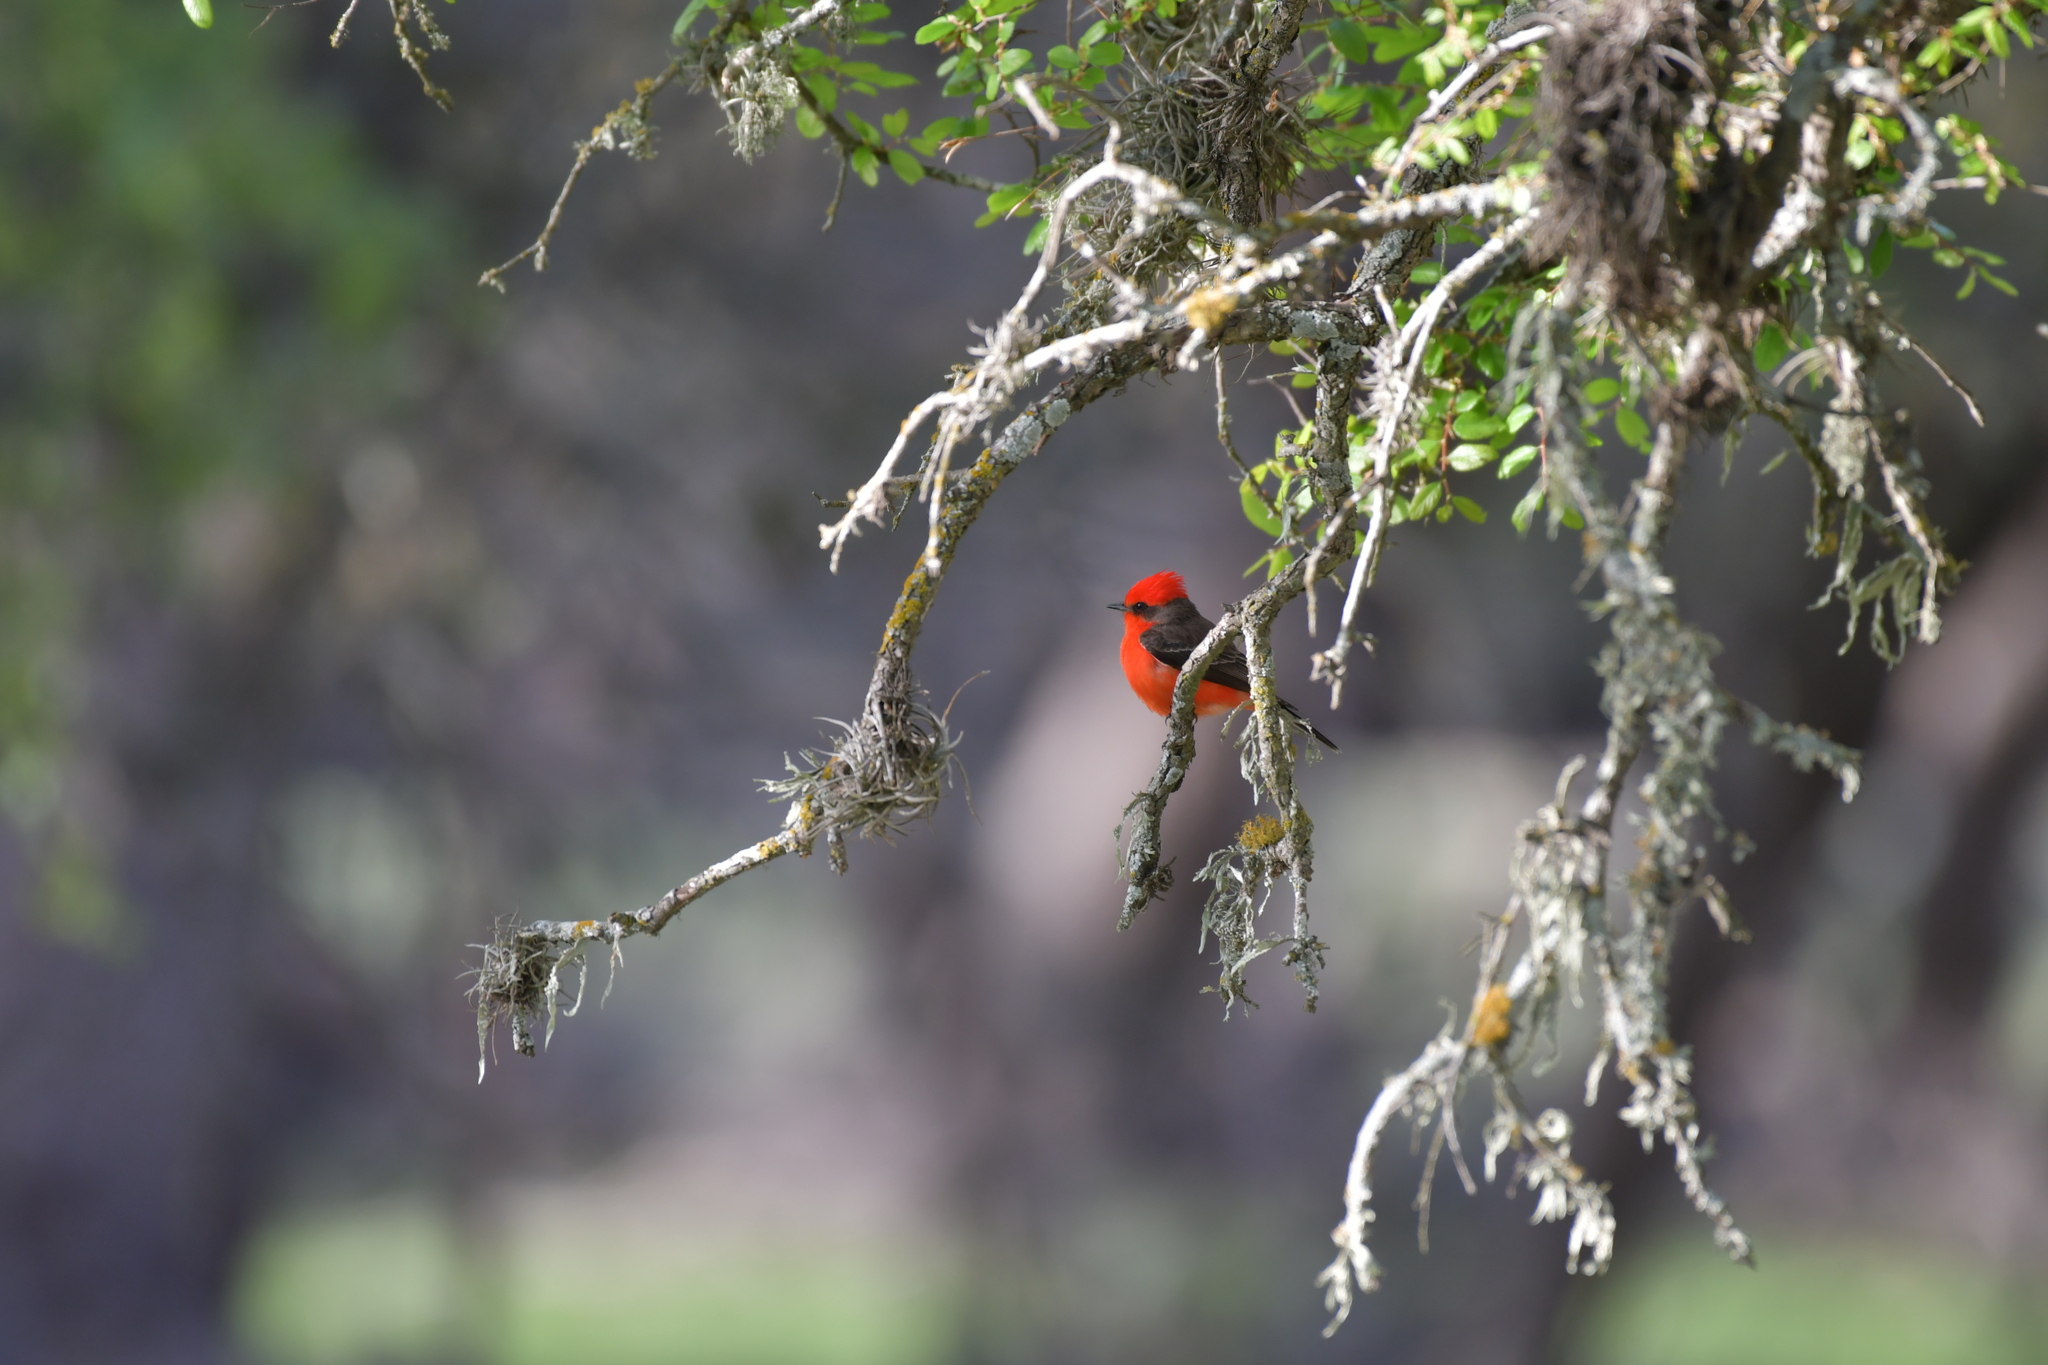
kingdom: Animalia
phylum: Chordata
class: Aves
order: Passeriformes
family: Tyrannidae
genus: Pyrocephalus
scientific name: Pyrocephalus rubinus
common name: Vermilion flycatcher
